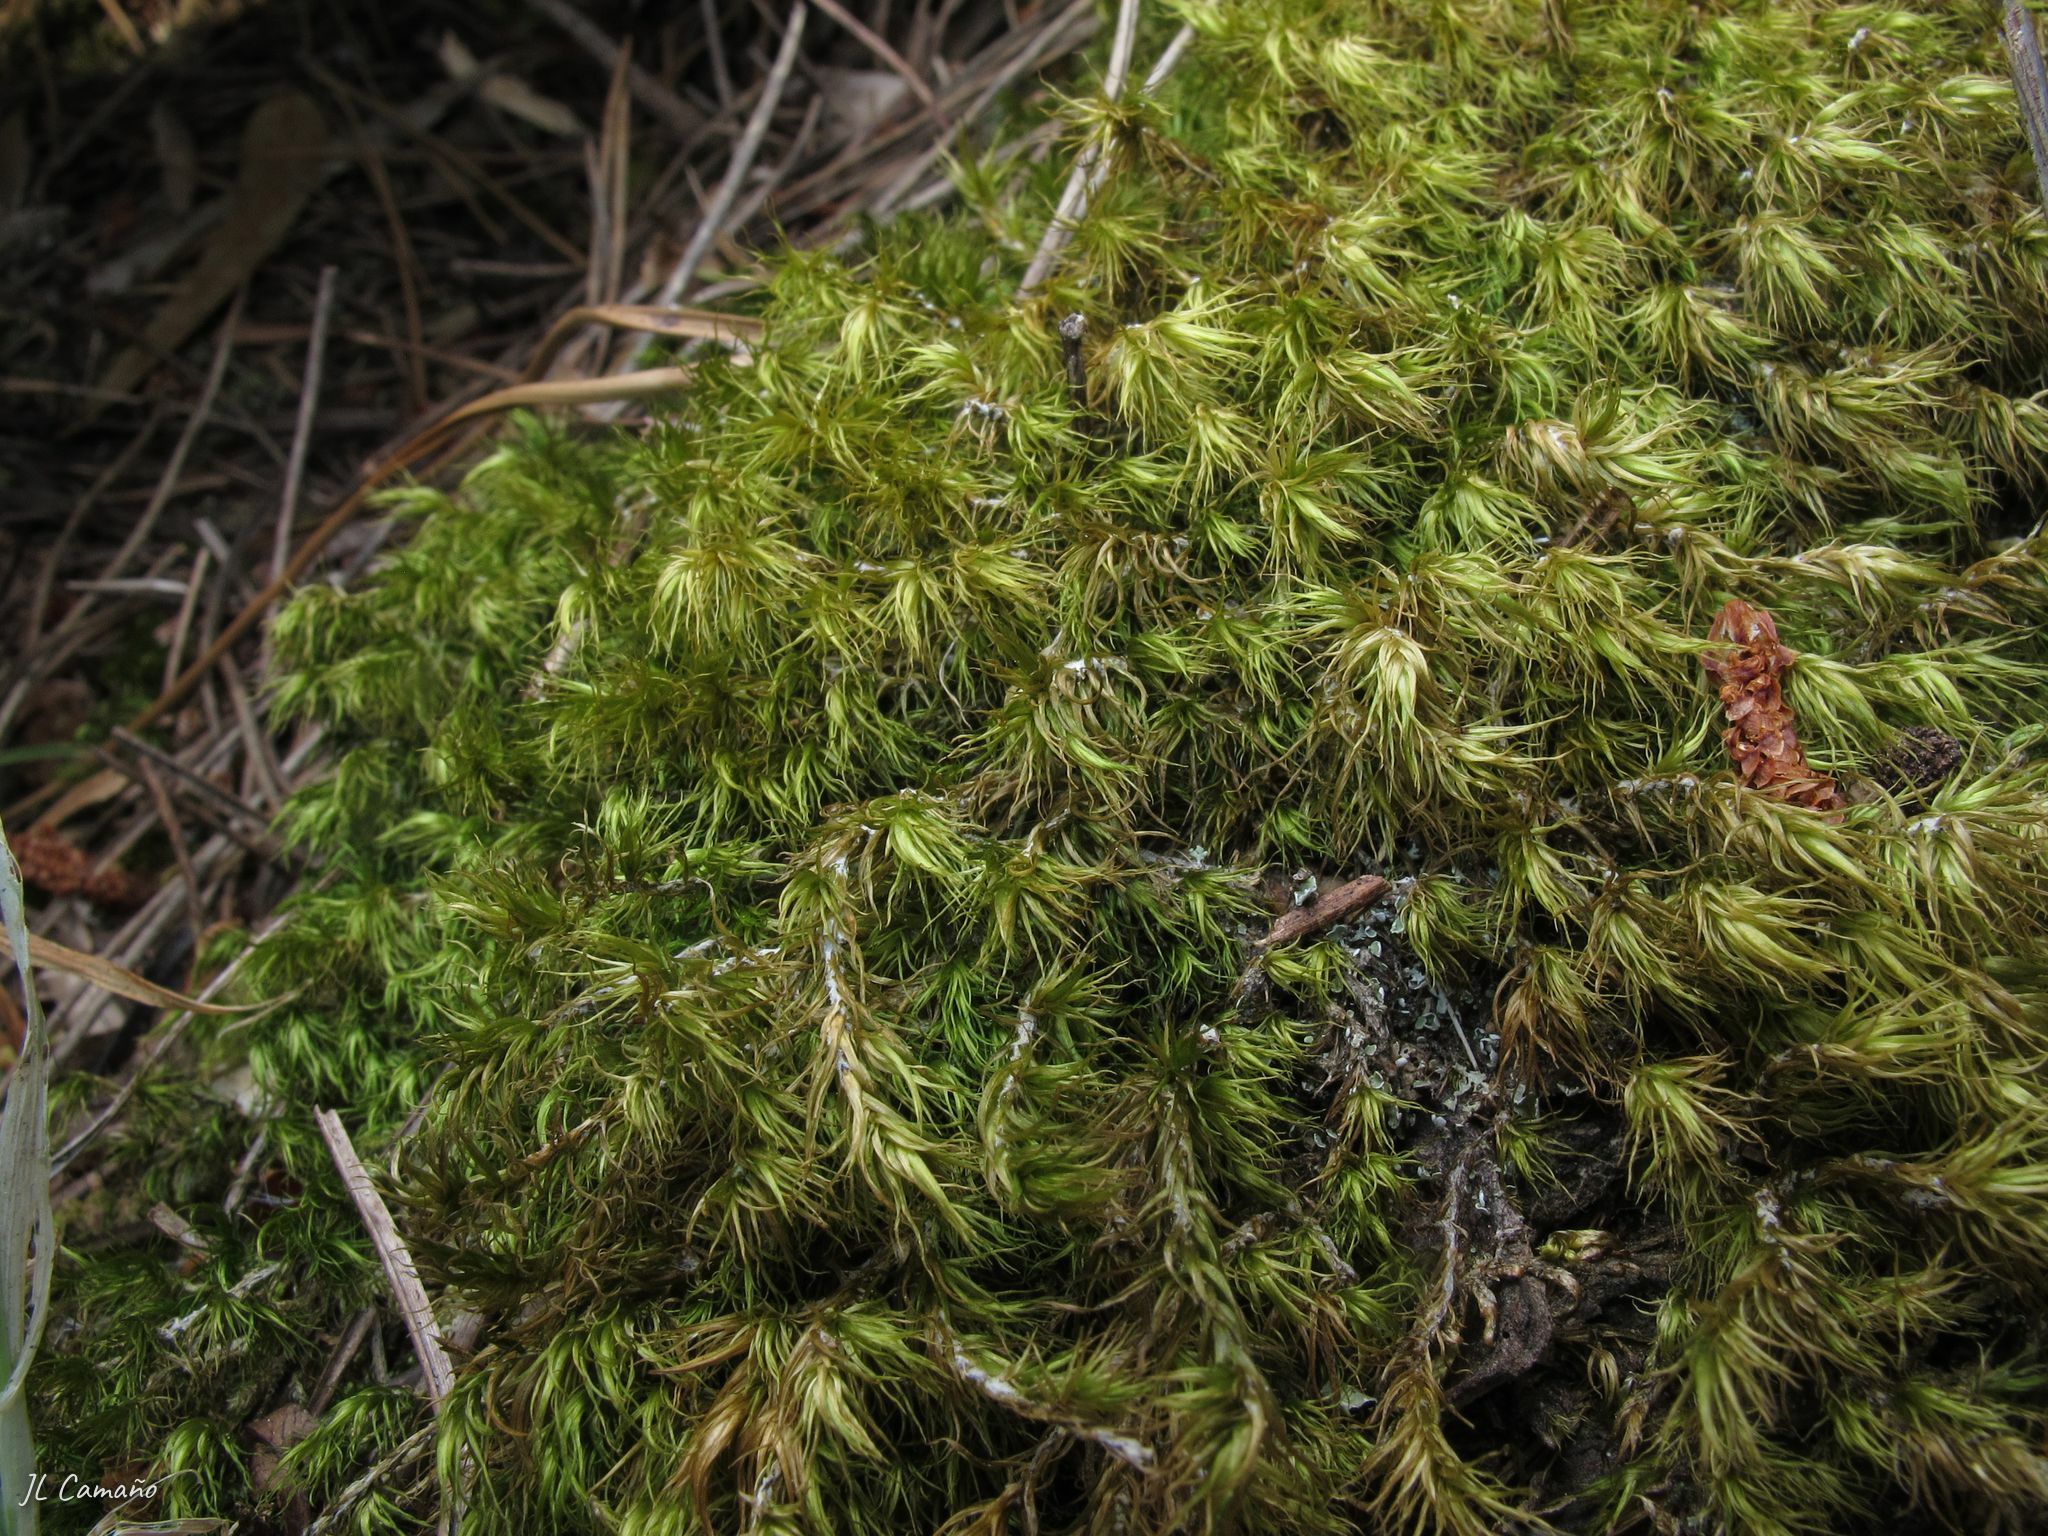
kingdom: Plantae
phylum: Bryophyta
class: Bryopsida
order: Dicranales
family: Dicranaceae
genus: Dicranum
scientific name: Dicranum scoparium
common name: Broom fork-moss
